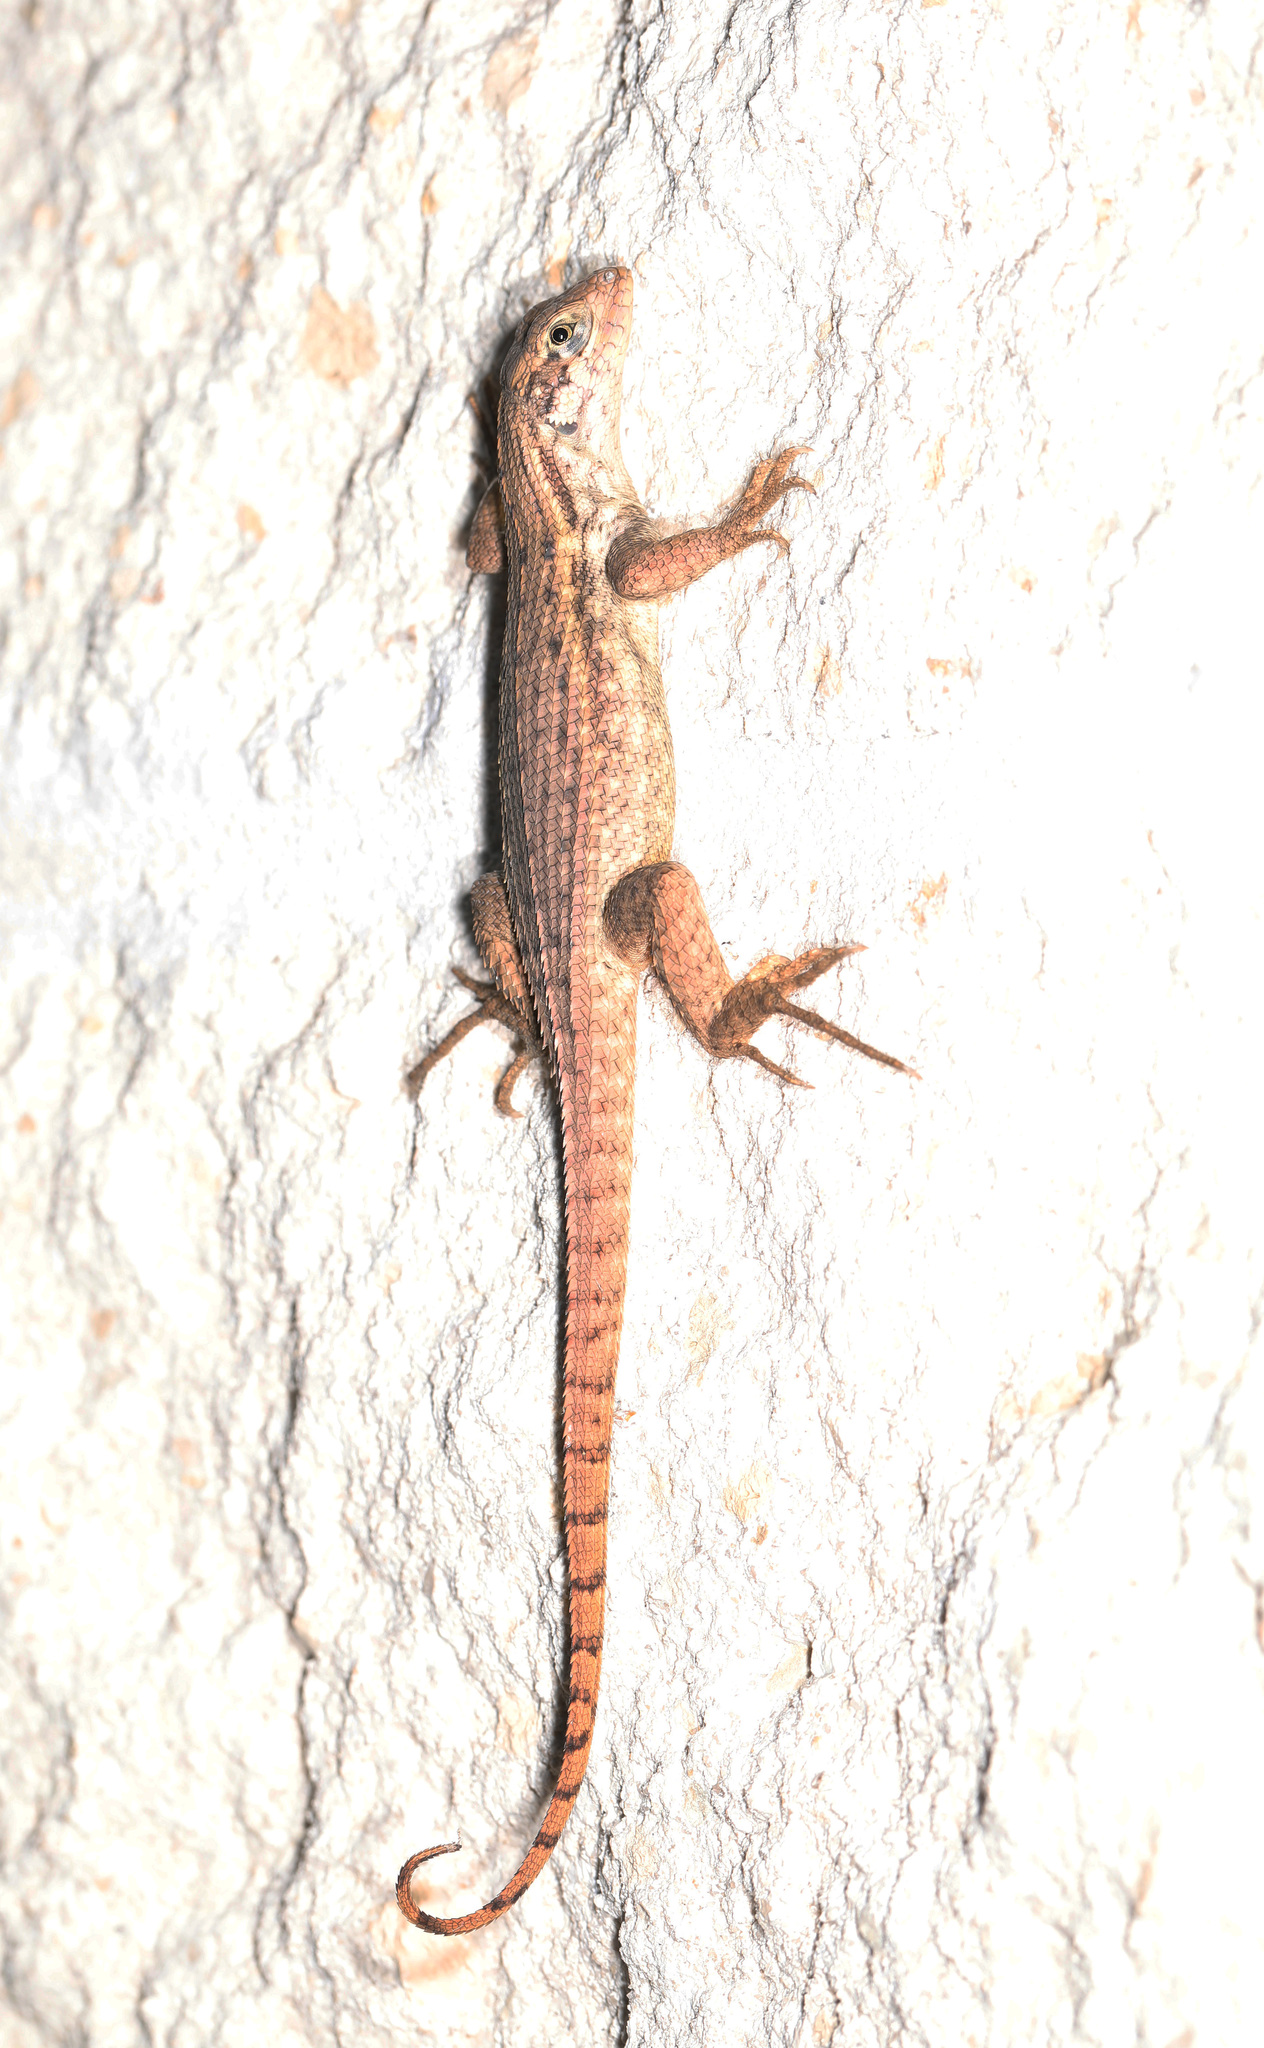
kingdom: Animalia
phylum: Chordata
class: Squamata
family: Leiocephalidae
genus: Leiocephalus
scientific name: Leiocephalus carinatus
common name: Northern curly-tailed lizard
